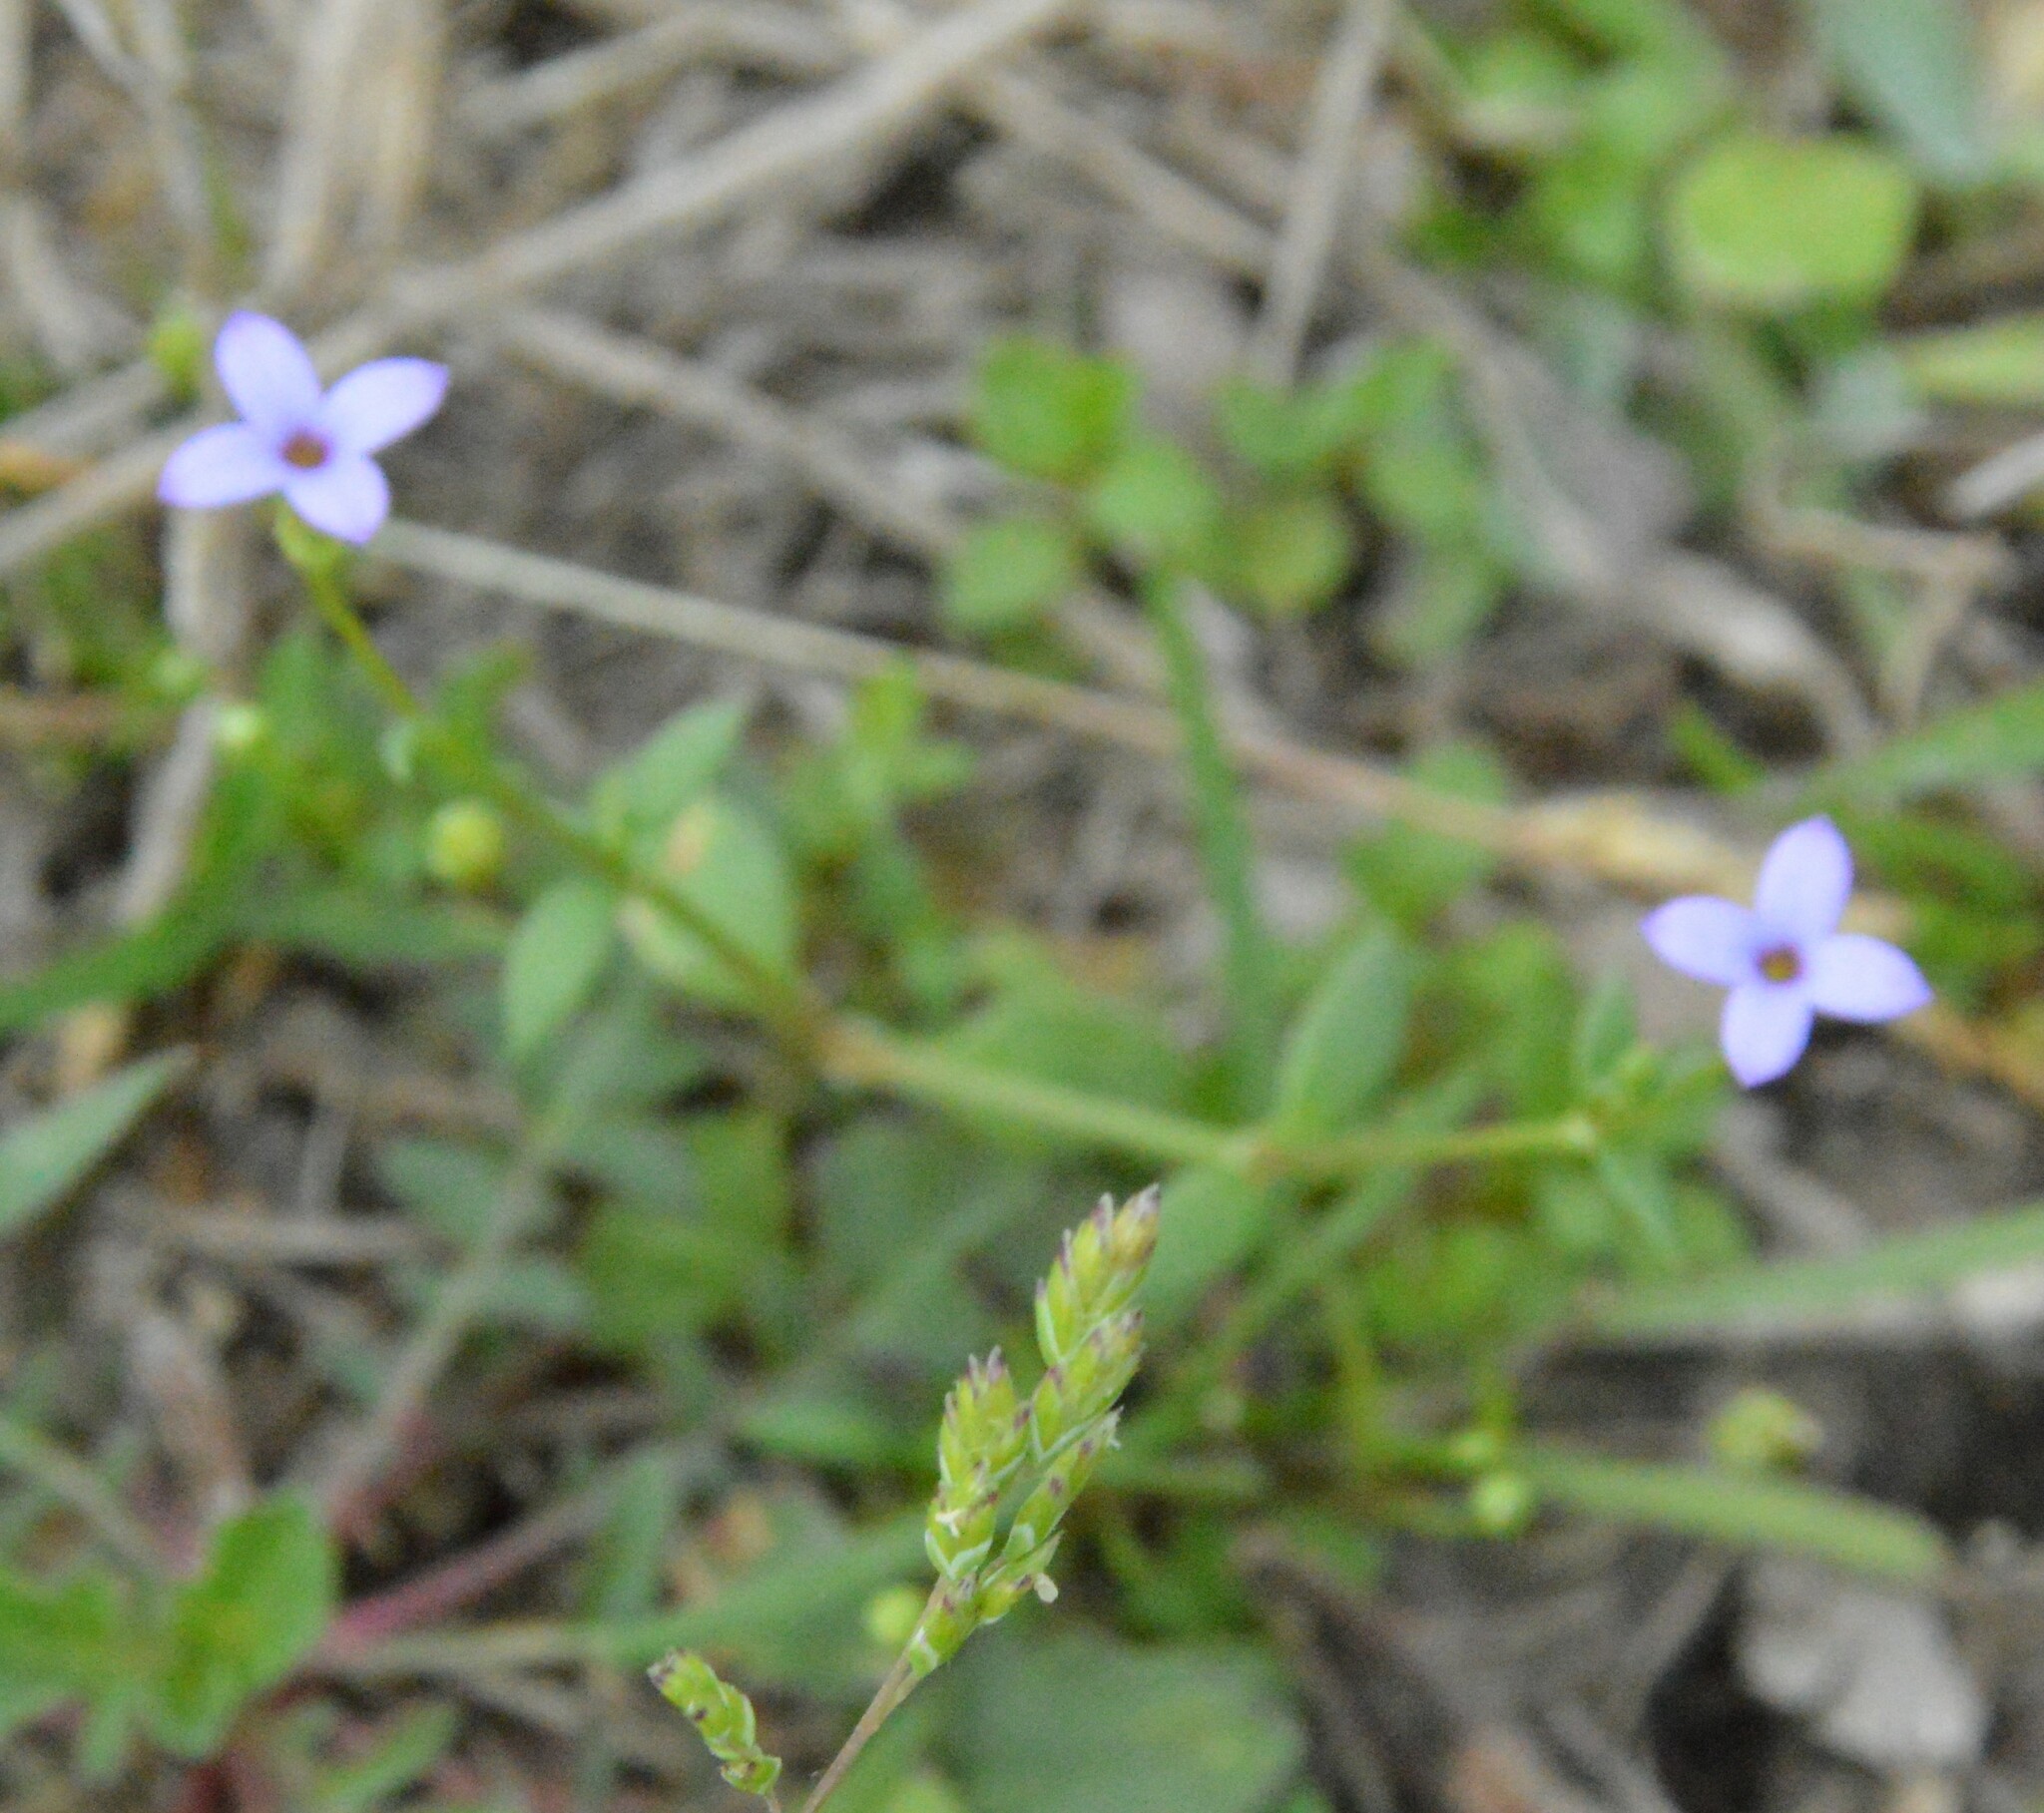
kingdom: Plantae
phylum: Tracheophyta
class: Magnoliopsida
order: Gentianales
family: Rubiaceae
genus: Houstonia
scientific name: Houstonia pusilla
